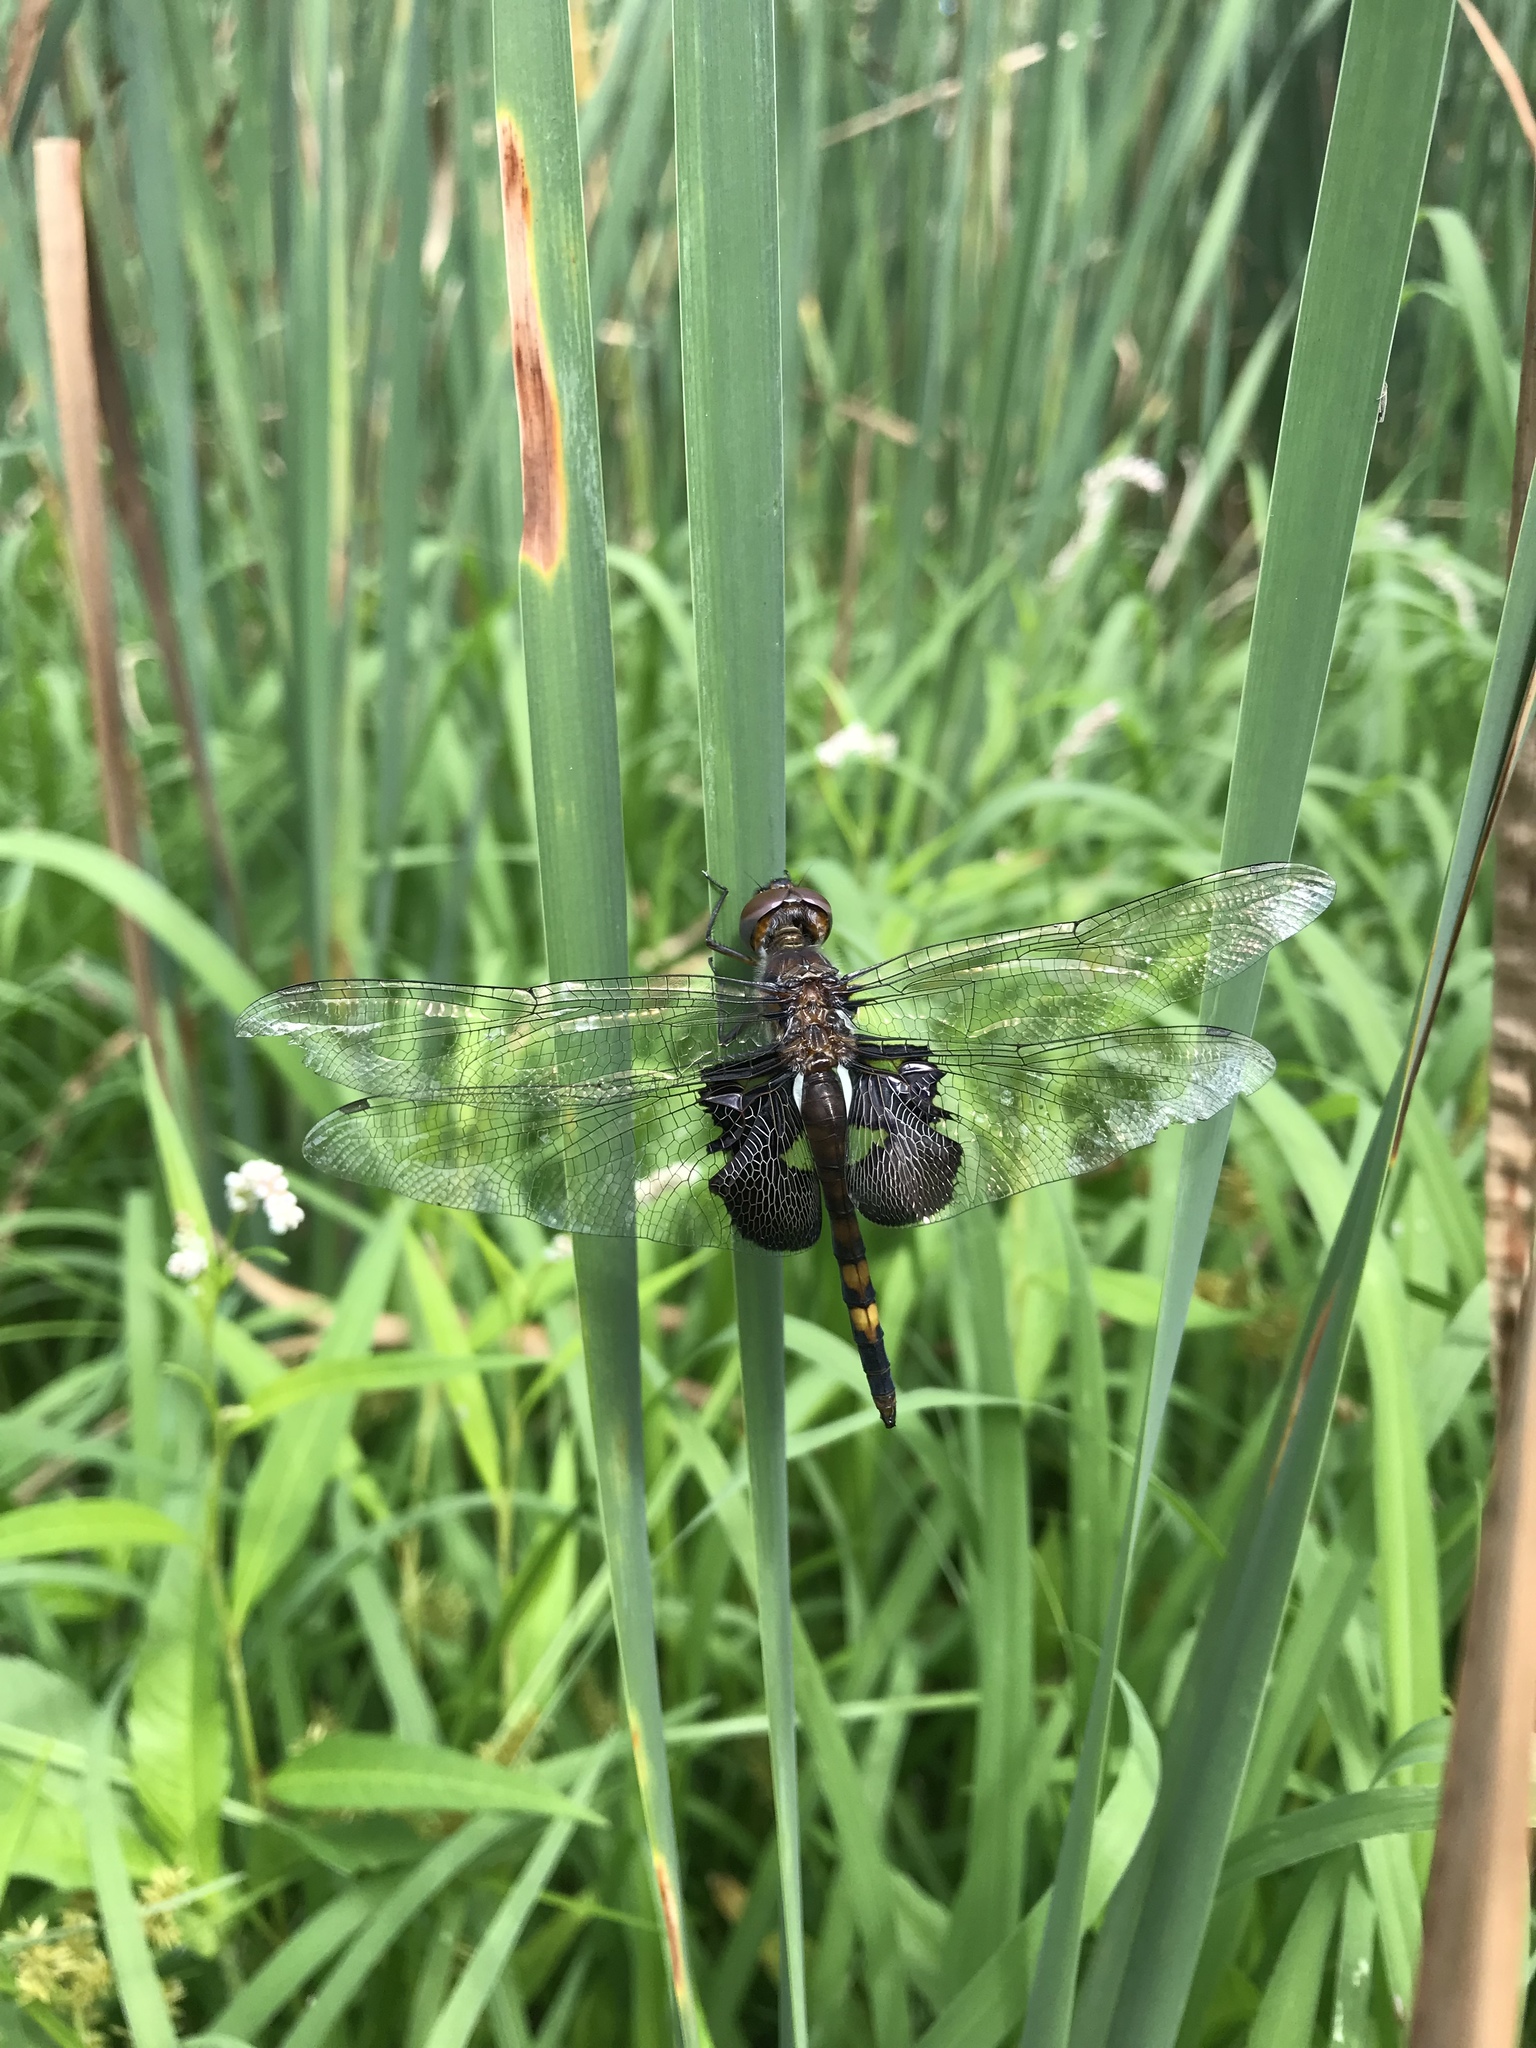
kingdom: Animalia
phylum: Arthropoda
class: Insecta
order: Odonata
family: Libellulidae
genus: Tramea
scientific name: Tramea lacerata
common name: Black saddlebags
